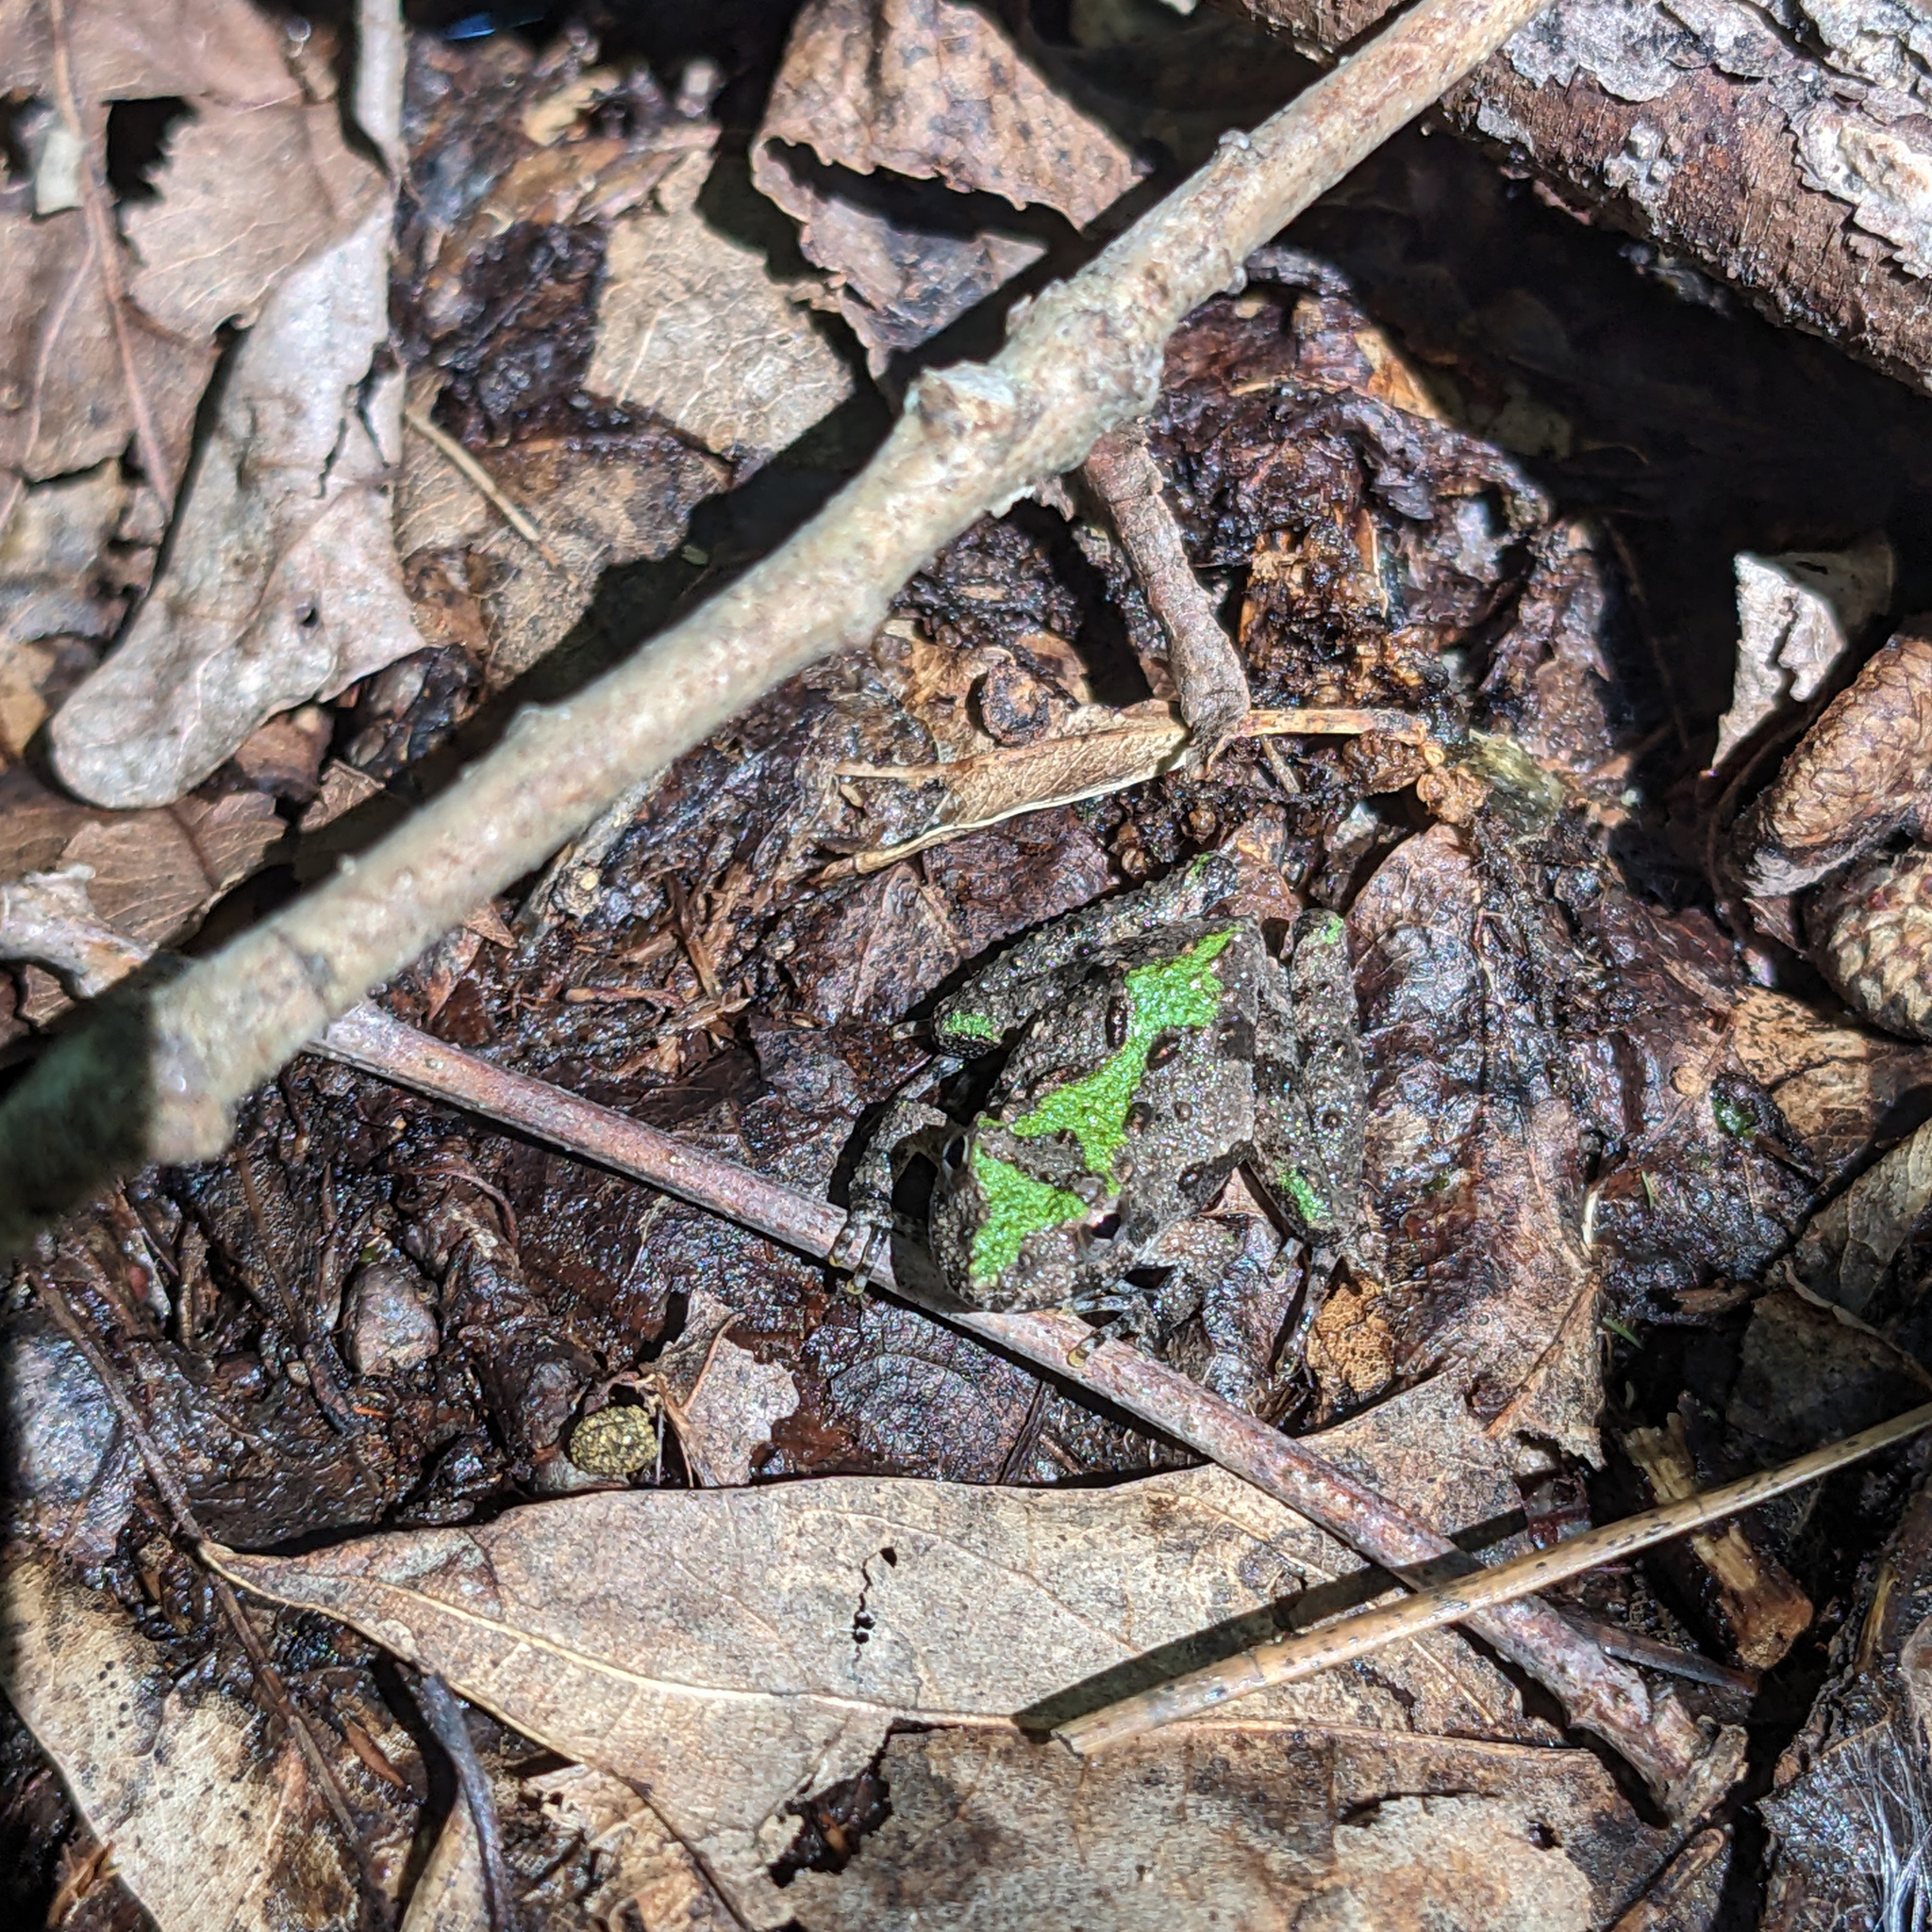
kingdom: Animalia
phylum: Chordata
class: Amphibia
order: Anura
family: Hylidae
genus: Acris
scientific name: Acris crepitans
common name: Northern cricket frog
